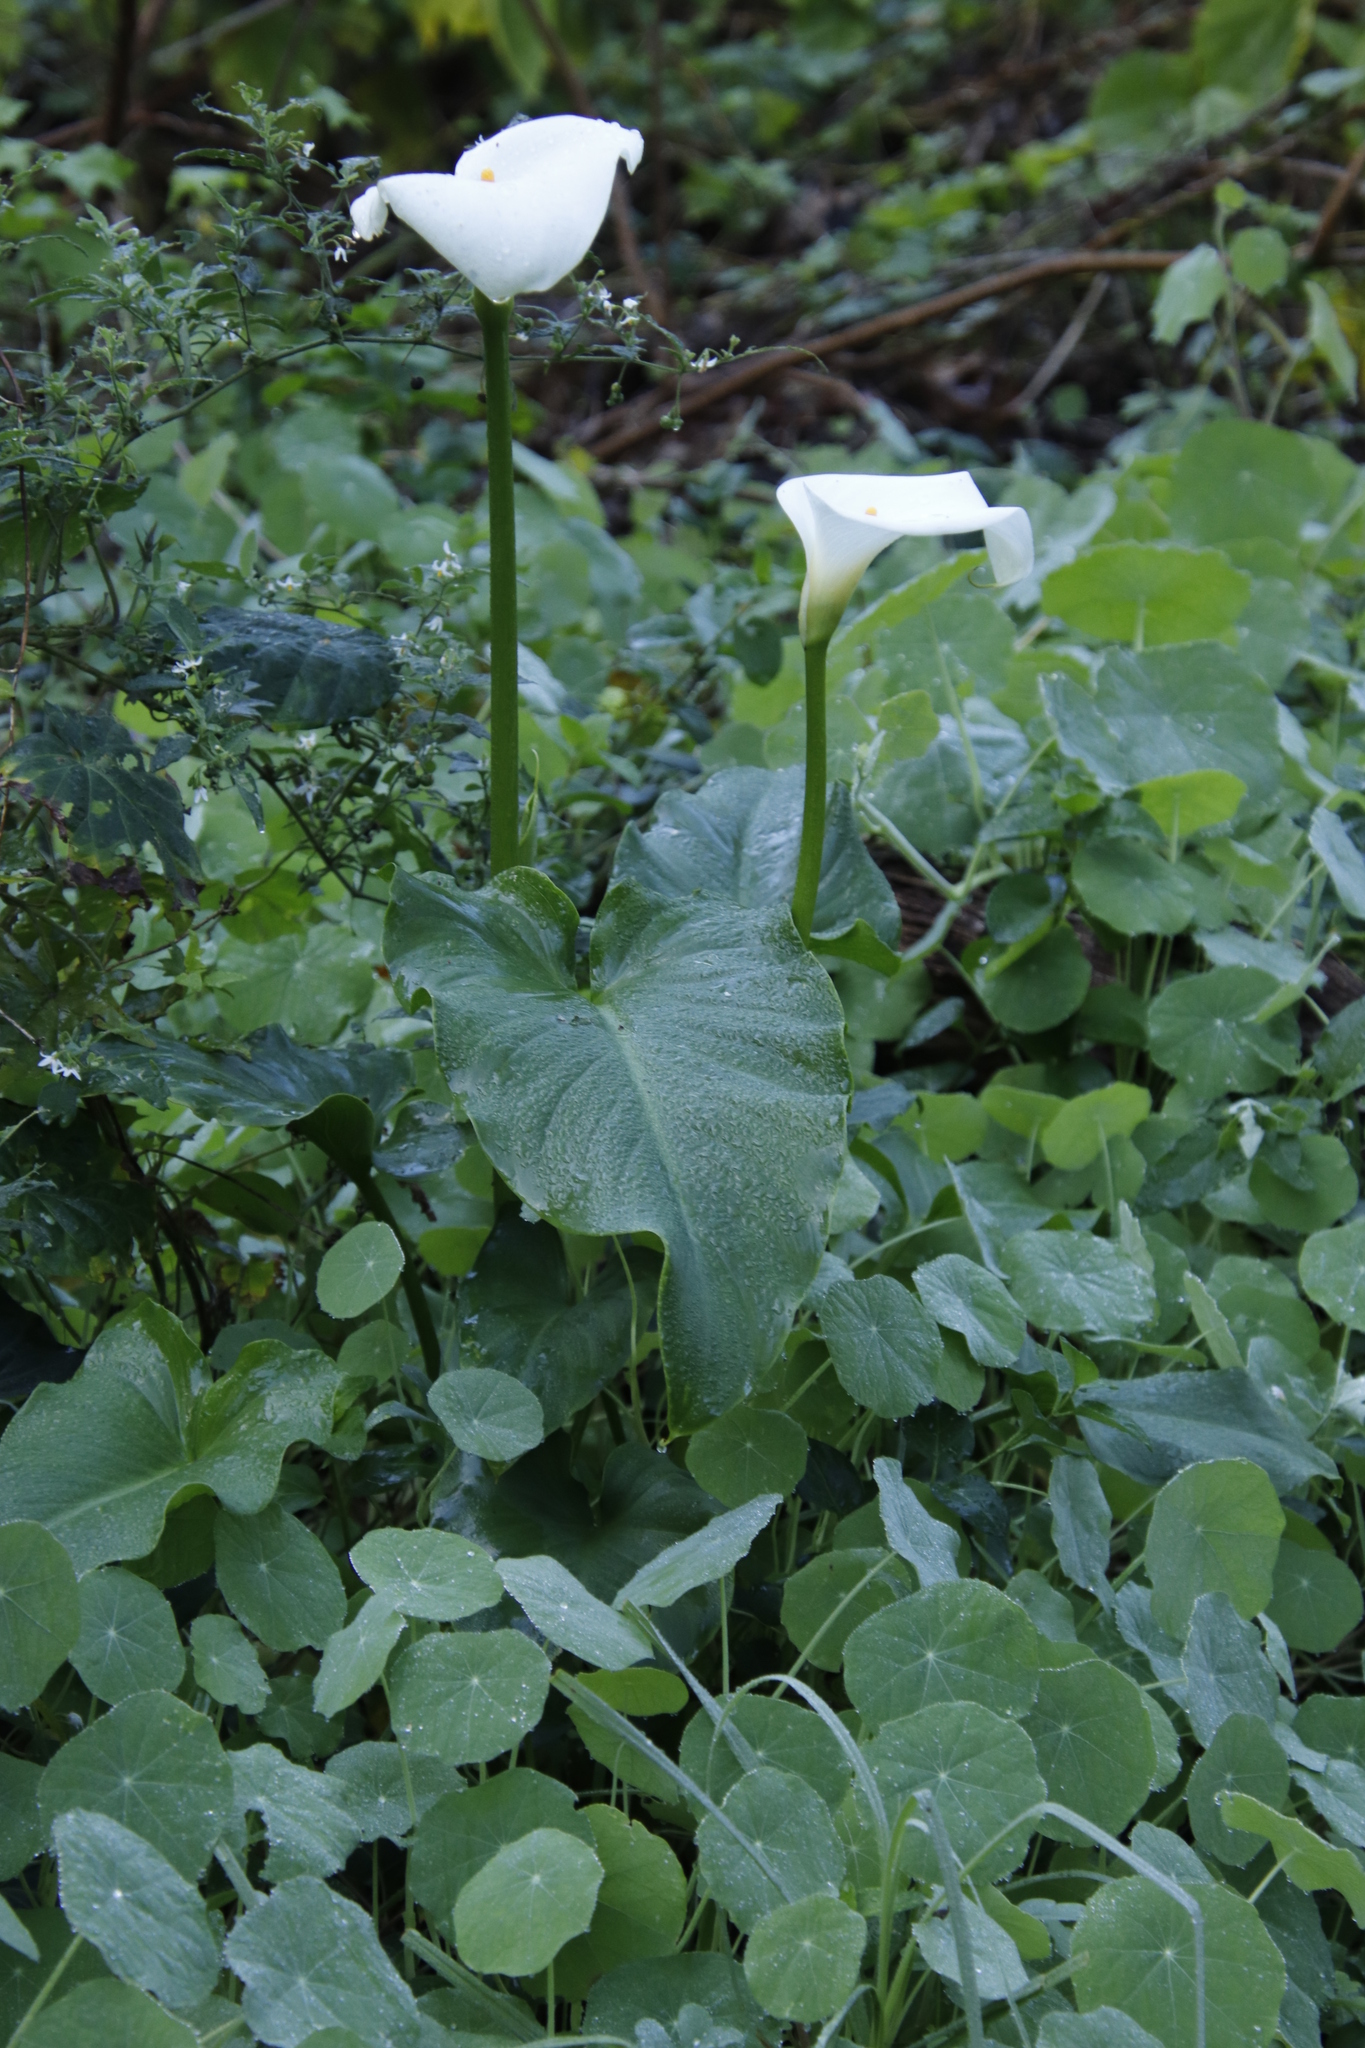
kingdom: Plantae
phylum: Tracheophyta
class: Liliopsida
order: Alismatales
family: Araceae
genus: Zantedeschia
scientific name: Zantedeschia aethiopica
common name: Altar-lily
